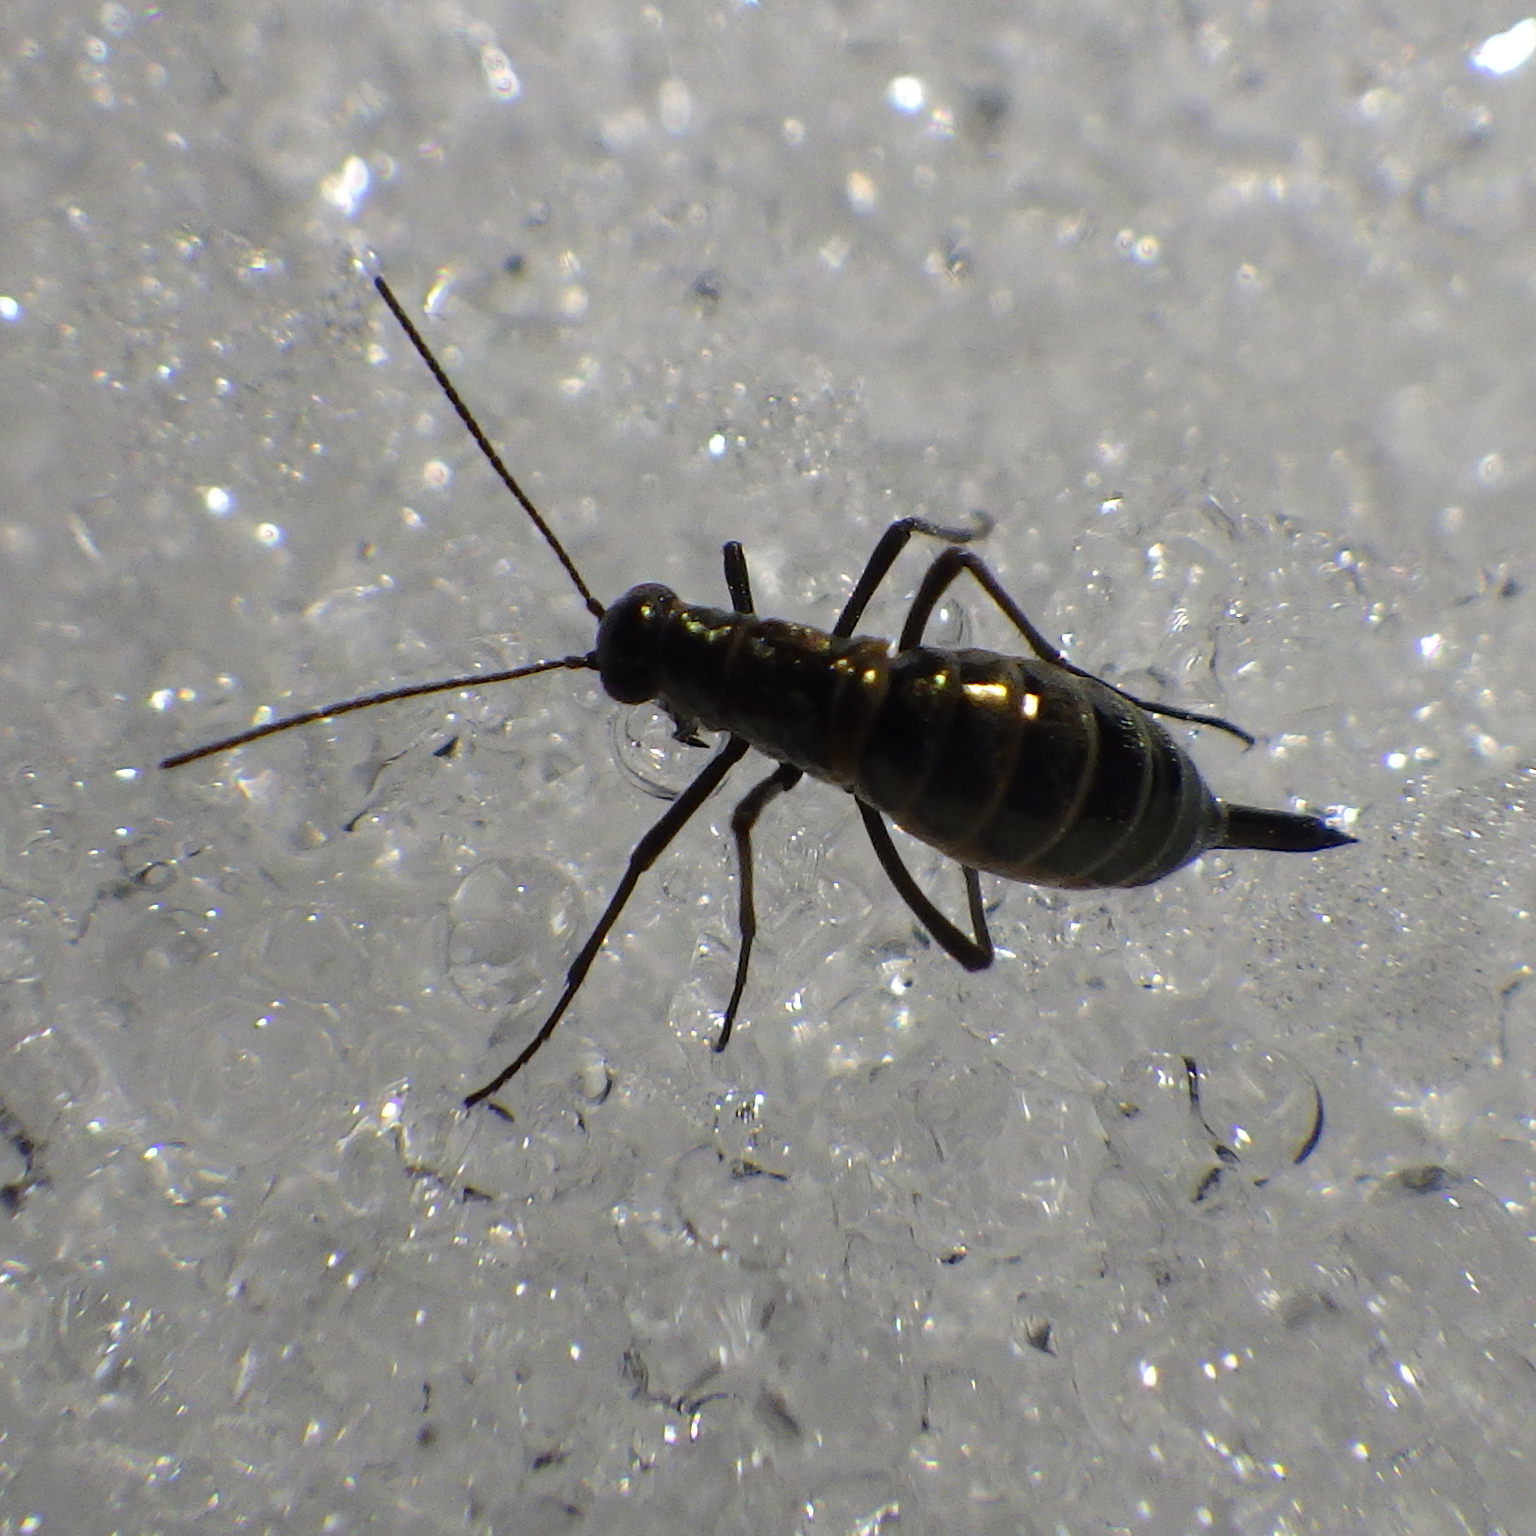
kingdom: Animalia
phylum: Arthropoda
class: Insecta
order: Mecoptera
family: Boreidae
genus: Boreus
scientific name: Boreus brumalis
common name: Mid-winter boreus
